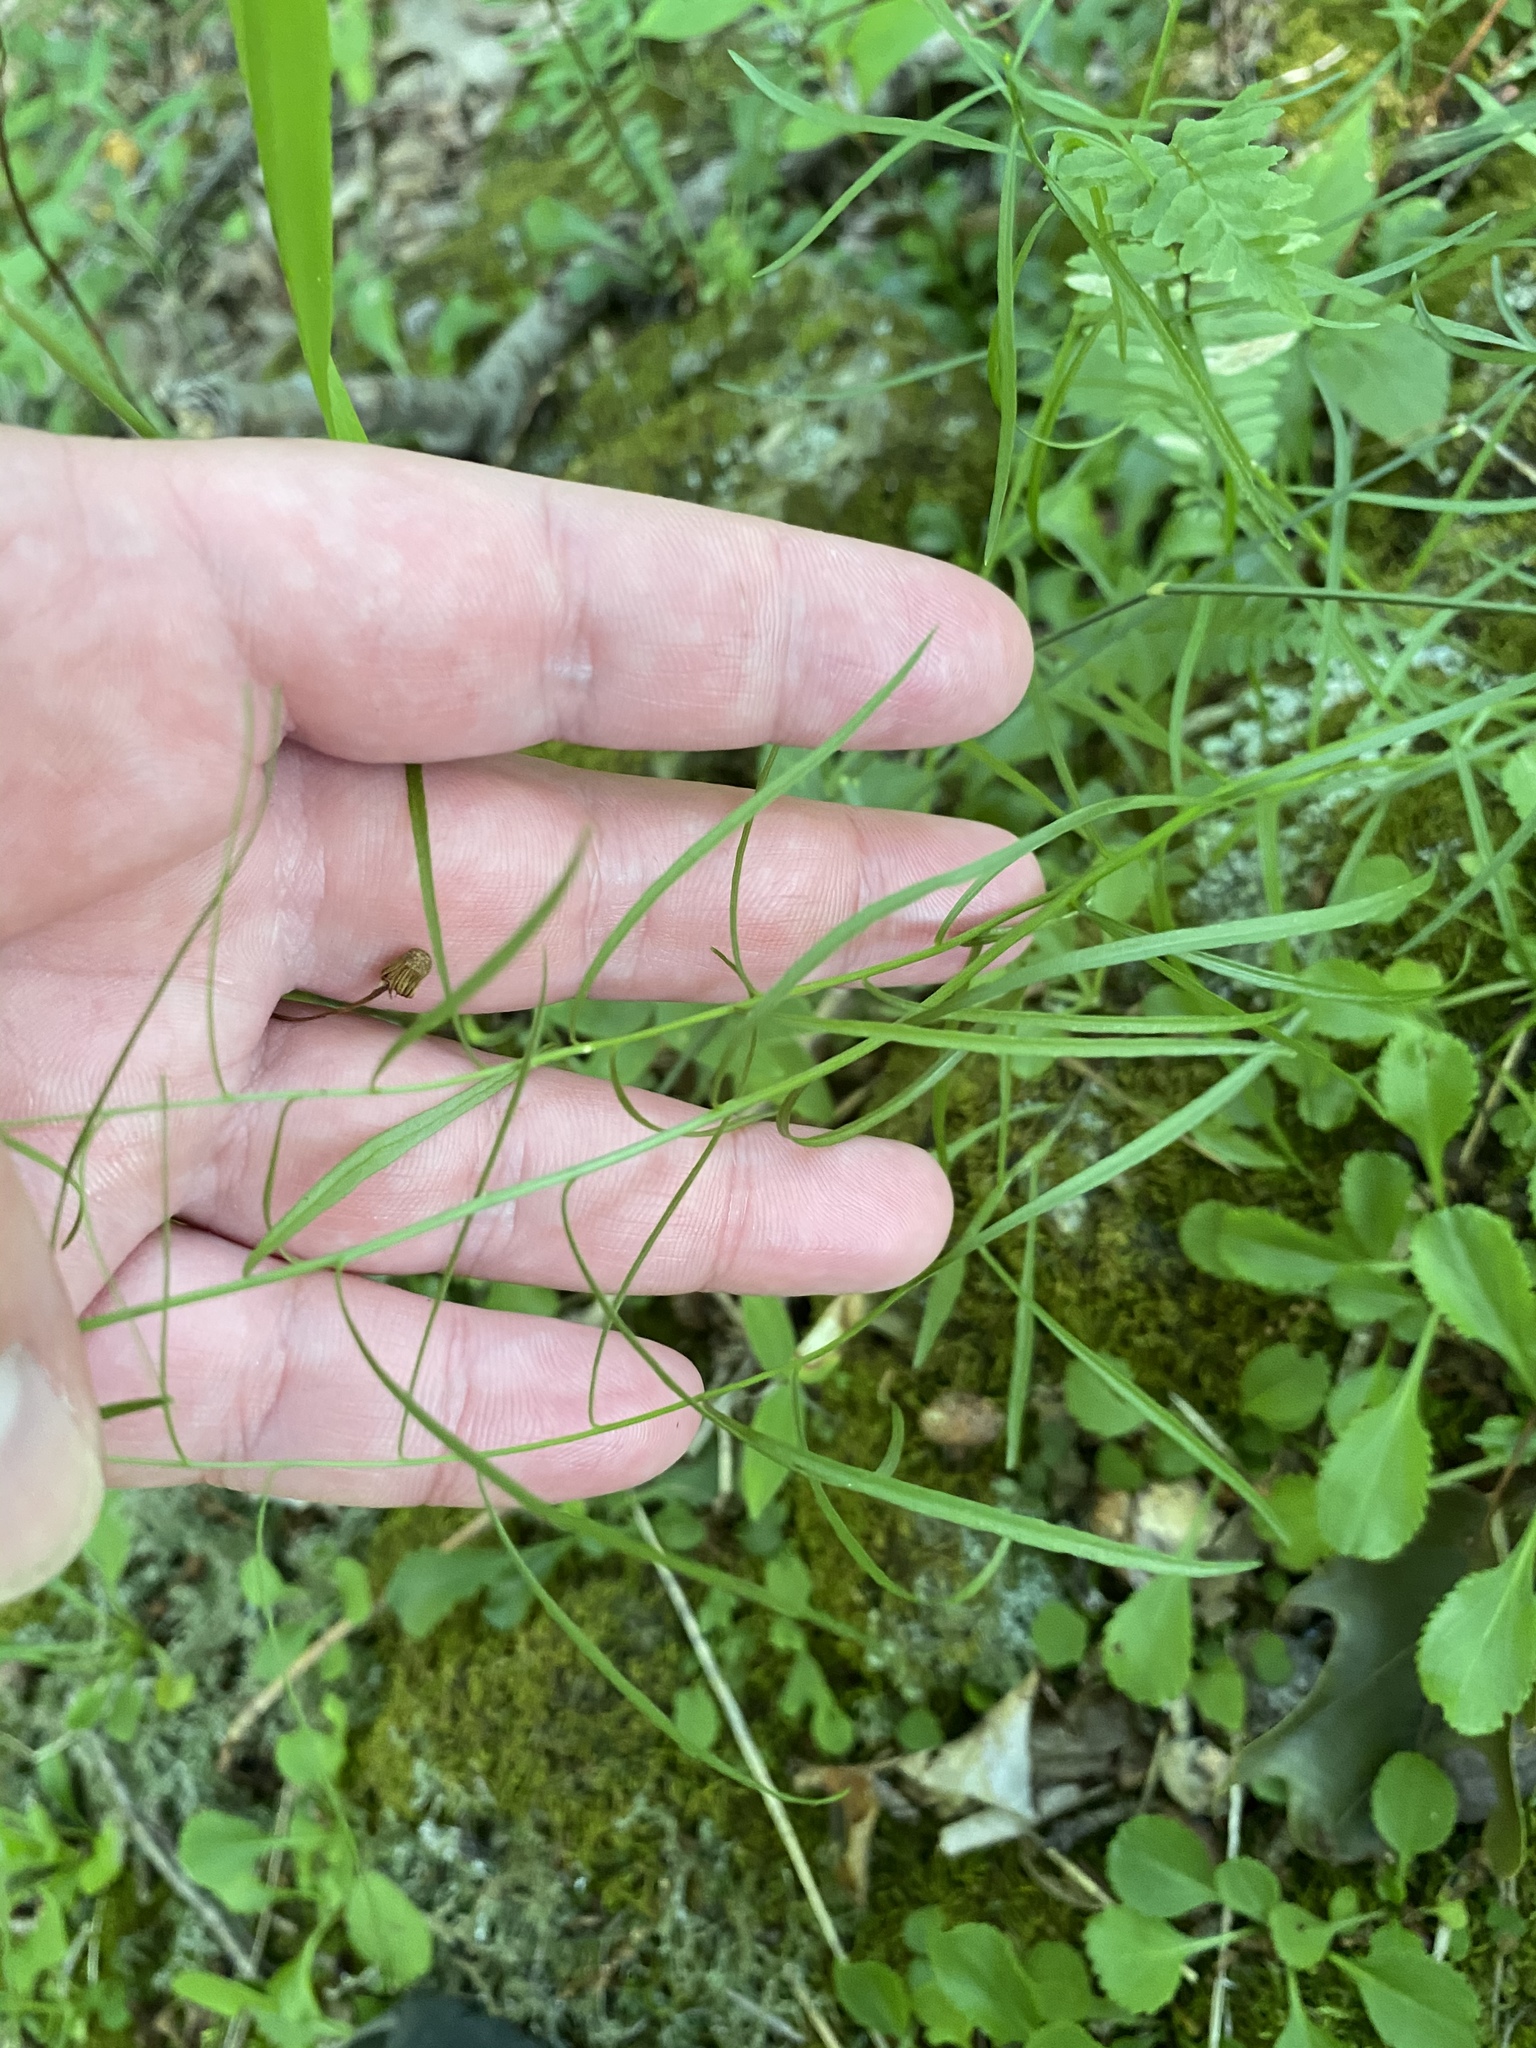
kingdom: Plantae
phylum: Tracheophyta
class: Magnoliopsida
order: Asterales
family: Campanulaceae
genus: Campanula
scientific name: Campanula intercedens
